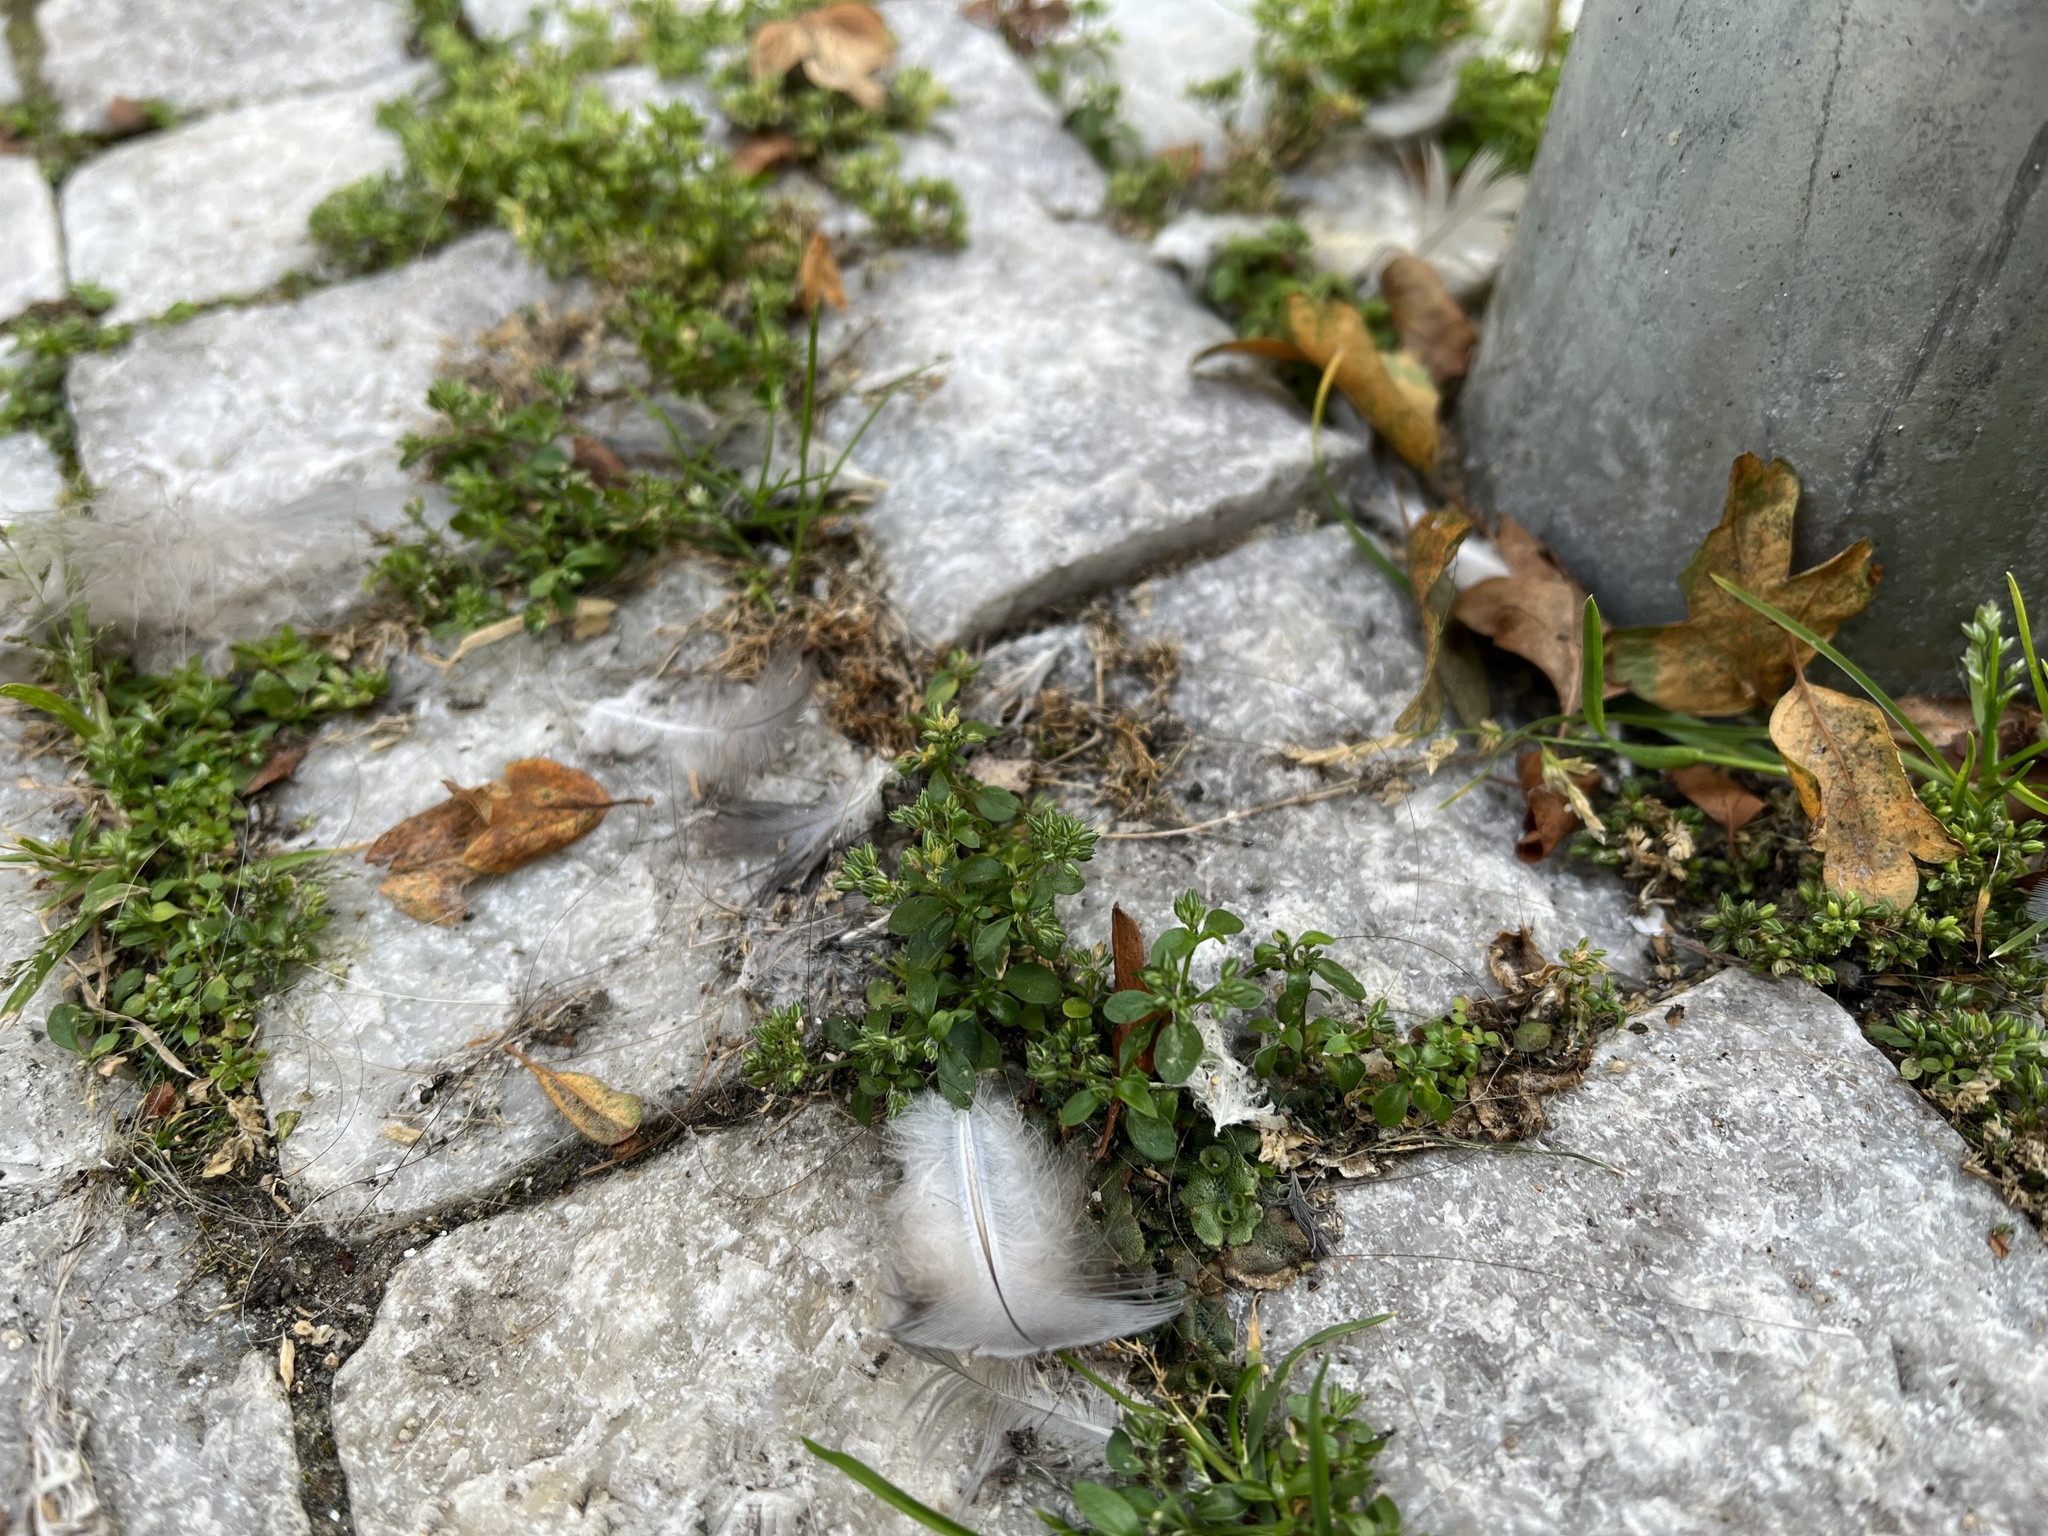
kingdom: Plantae
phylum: Tracheophyta
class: Magnoliopsida
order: Caryophyllales
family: Caryophyllaceae
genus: Polycarpon
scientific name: Polycarpon tetraphyllum
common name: Four-leaved all-seed
